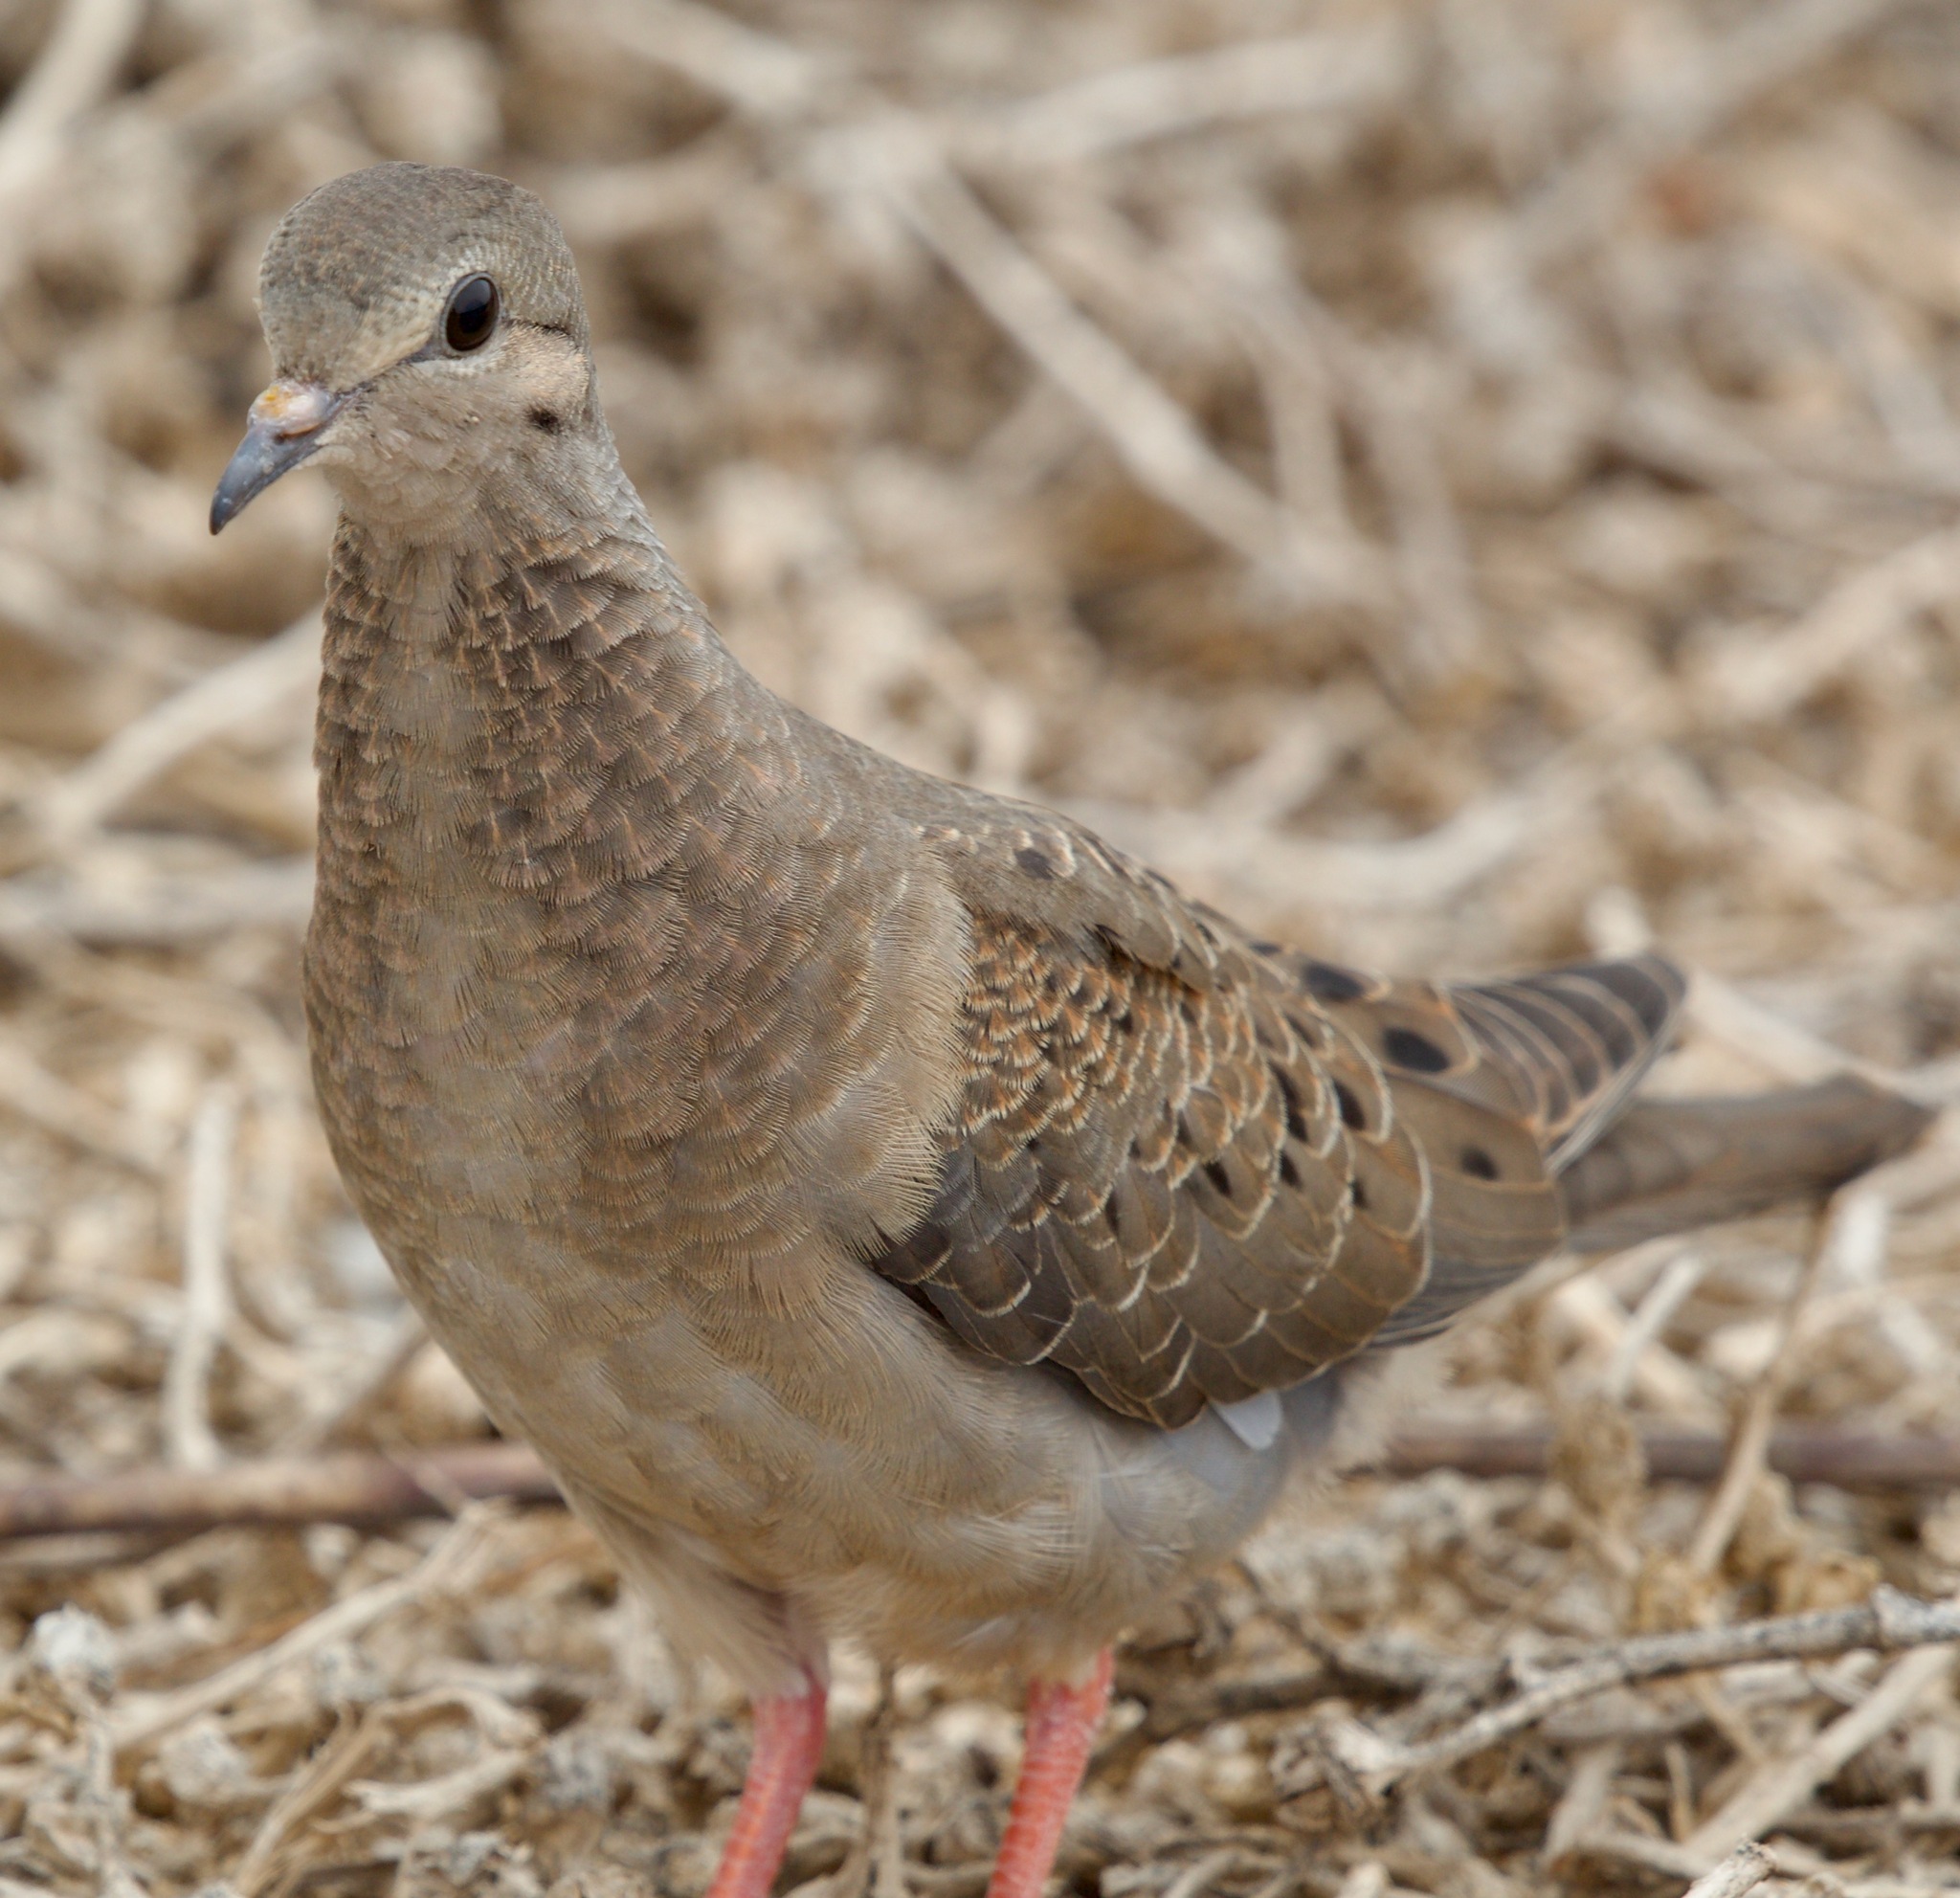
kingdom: Animalia
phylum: Chordata
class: Aves
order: Columbiformes
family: Columbidae
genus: Zenaida
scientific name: Zenaida auriculata
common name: Eared dove
